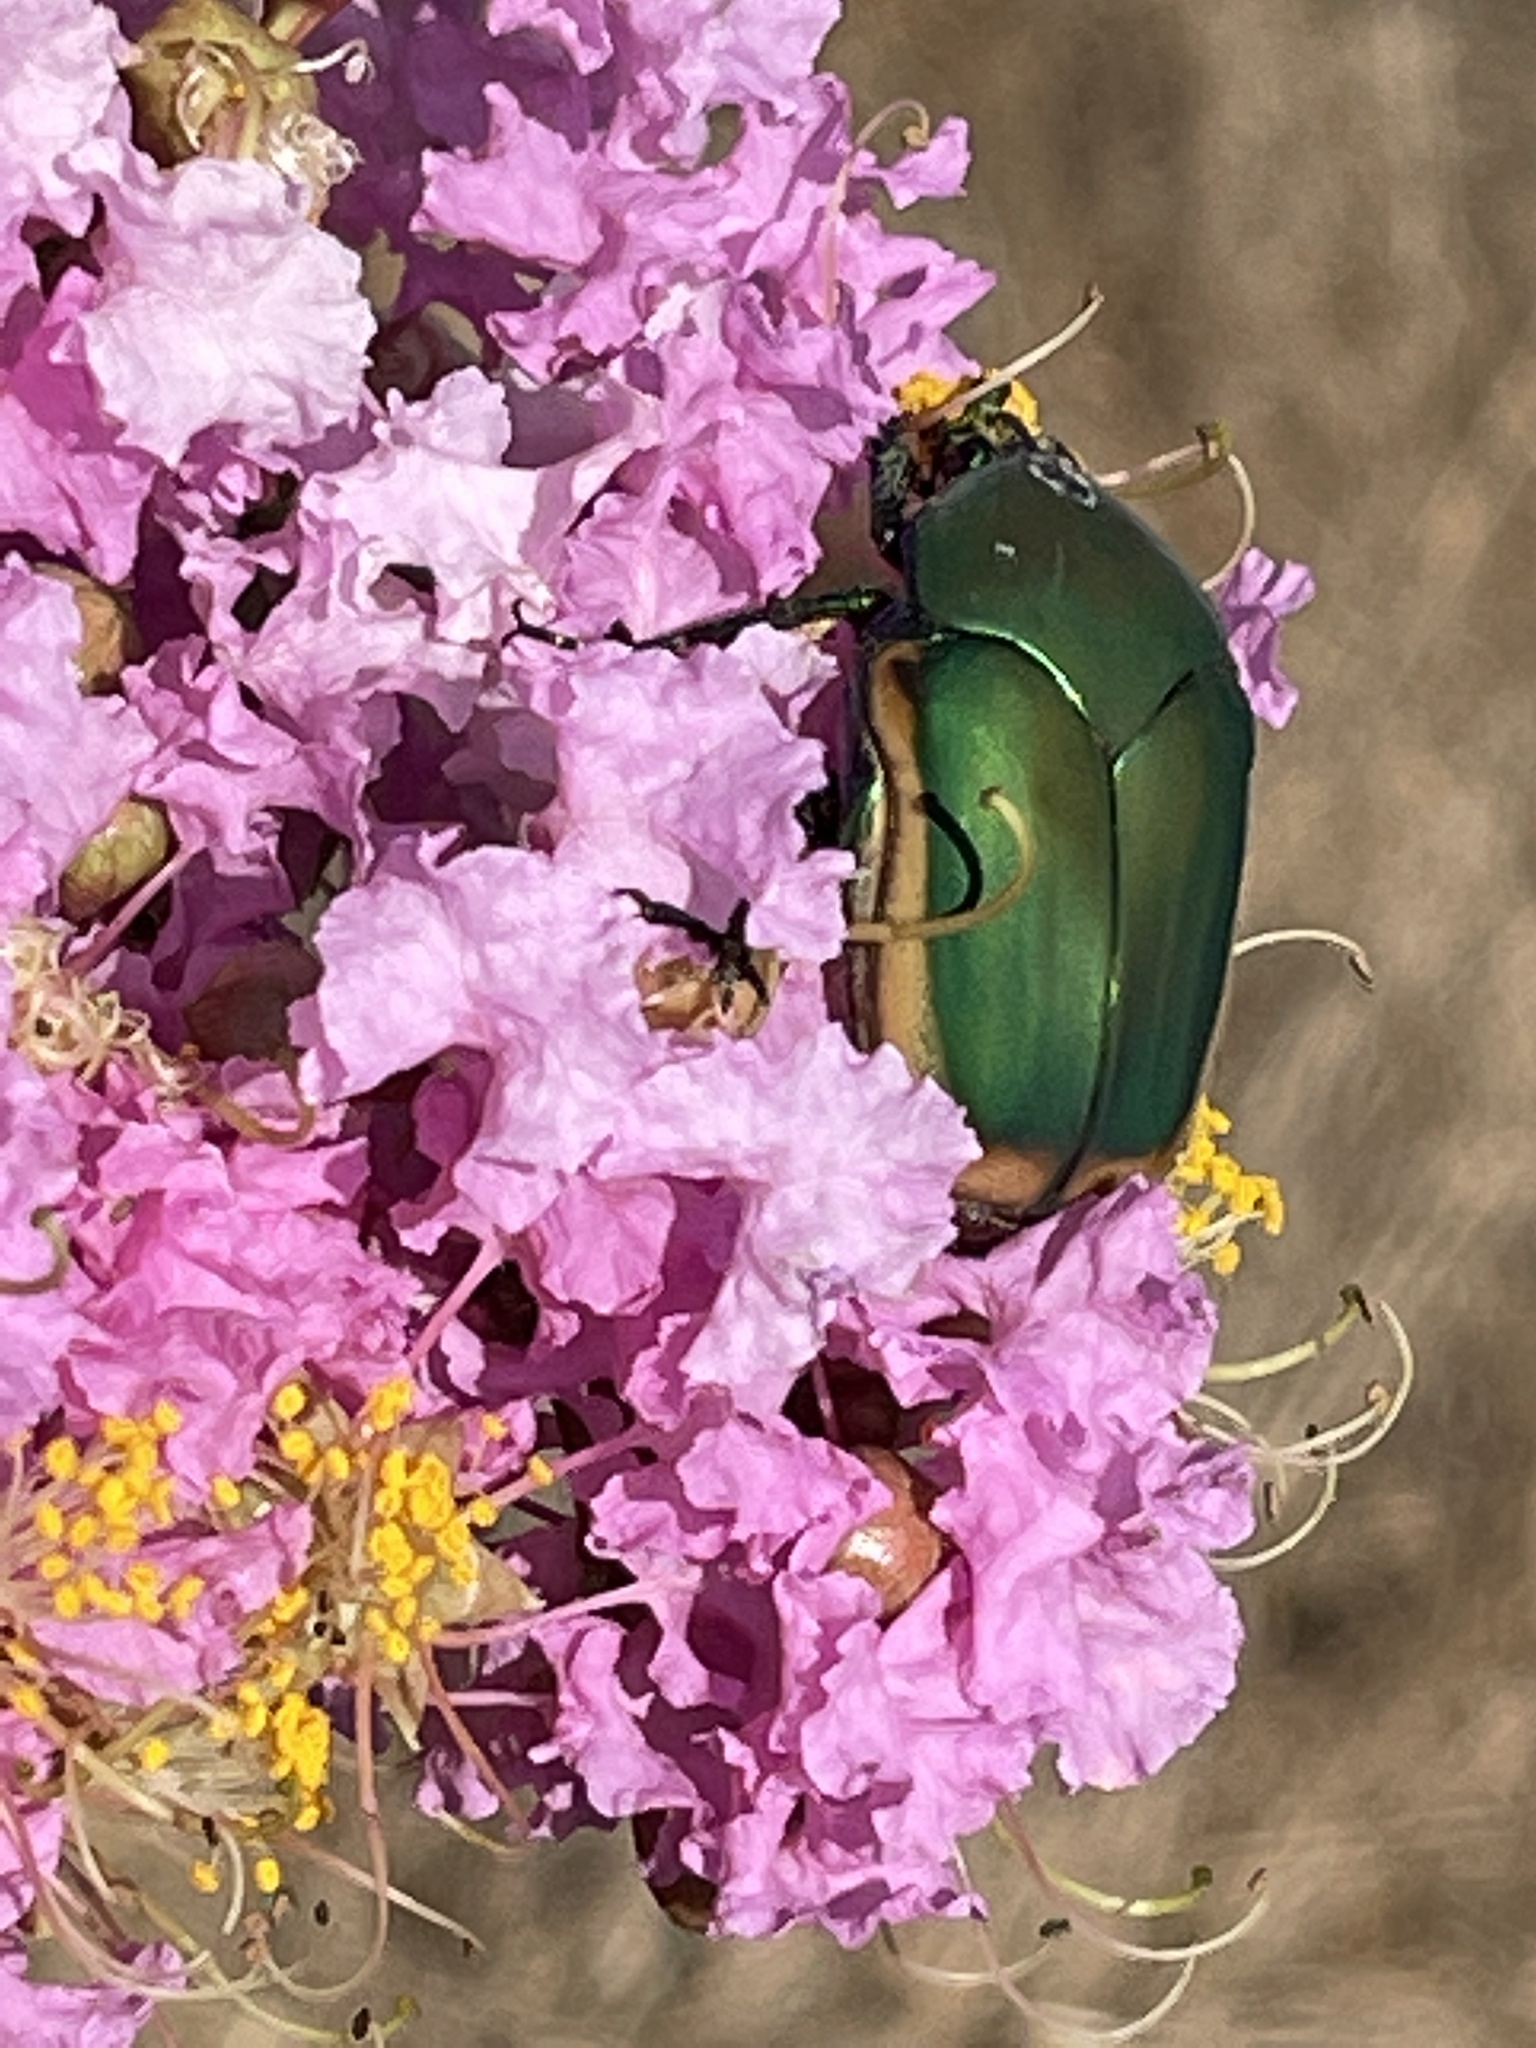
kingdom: Animalia
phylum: Arthropoda
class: Insecta
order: Coleoptera
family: Scarabaeidae
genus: Cotinis
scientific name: Cotinis mutabilis
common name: Figeater beetle
